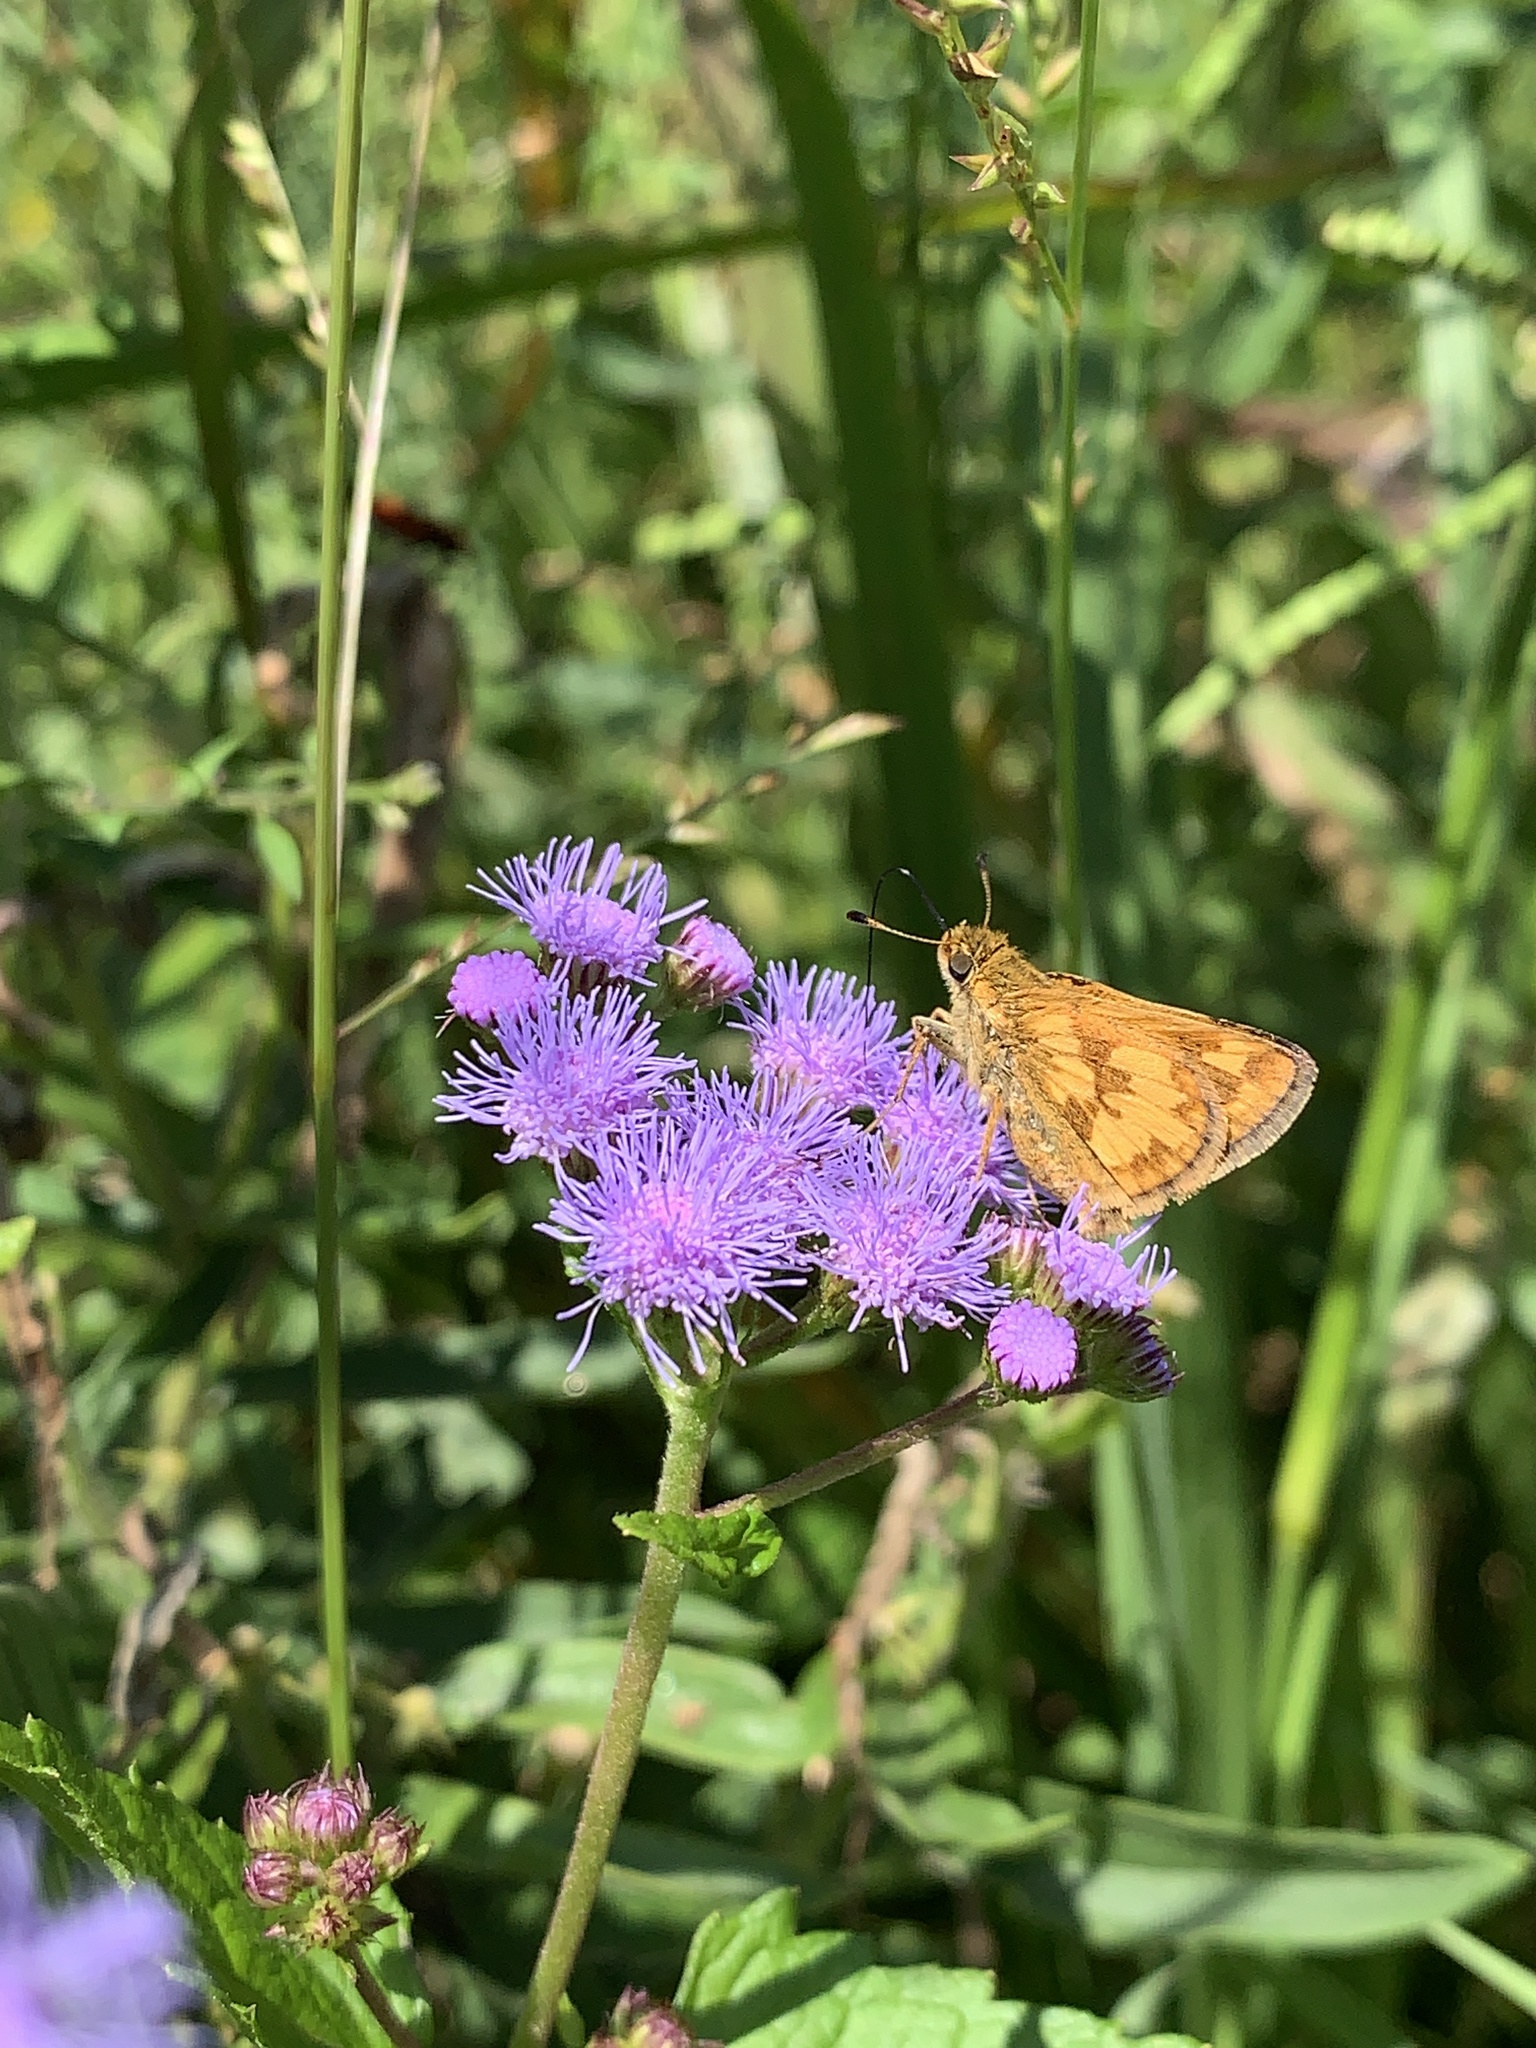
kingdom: Animalia
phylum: Arthropoda
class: Insecta
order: Lepidoptera
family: Hesperiidae
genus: Polites
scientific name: Polites coras
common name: Peck's skipper
